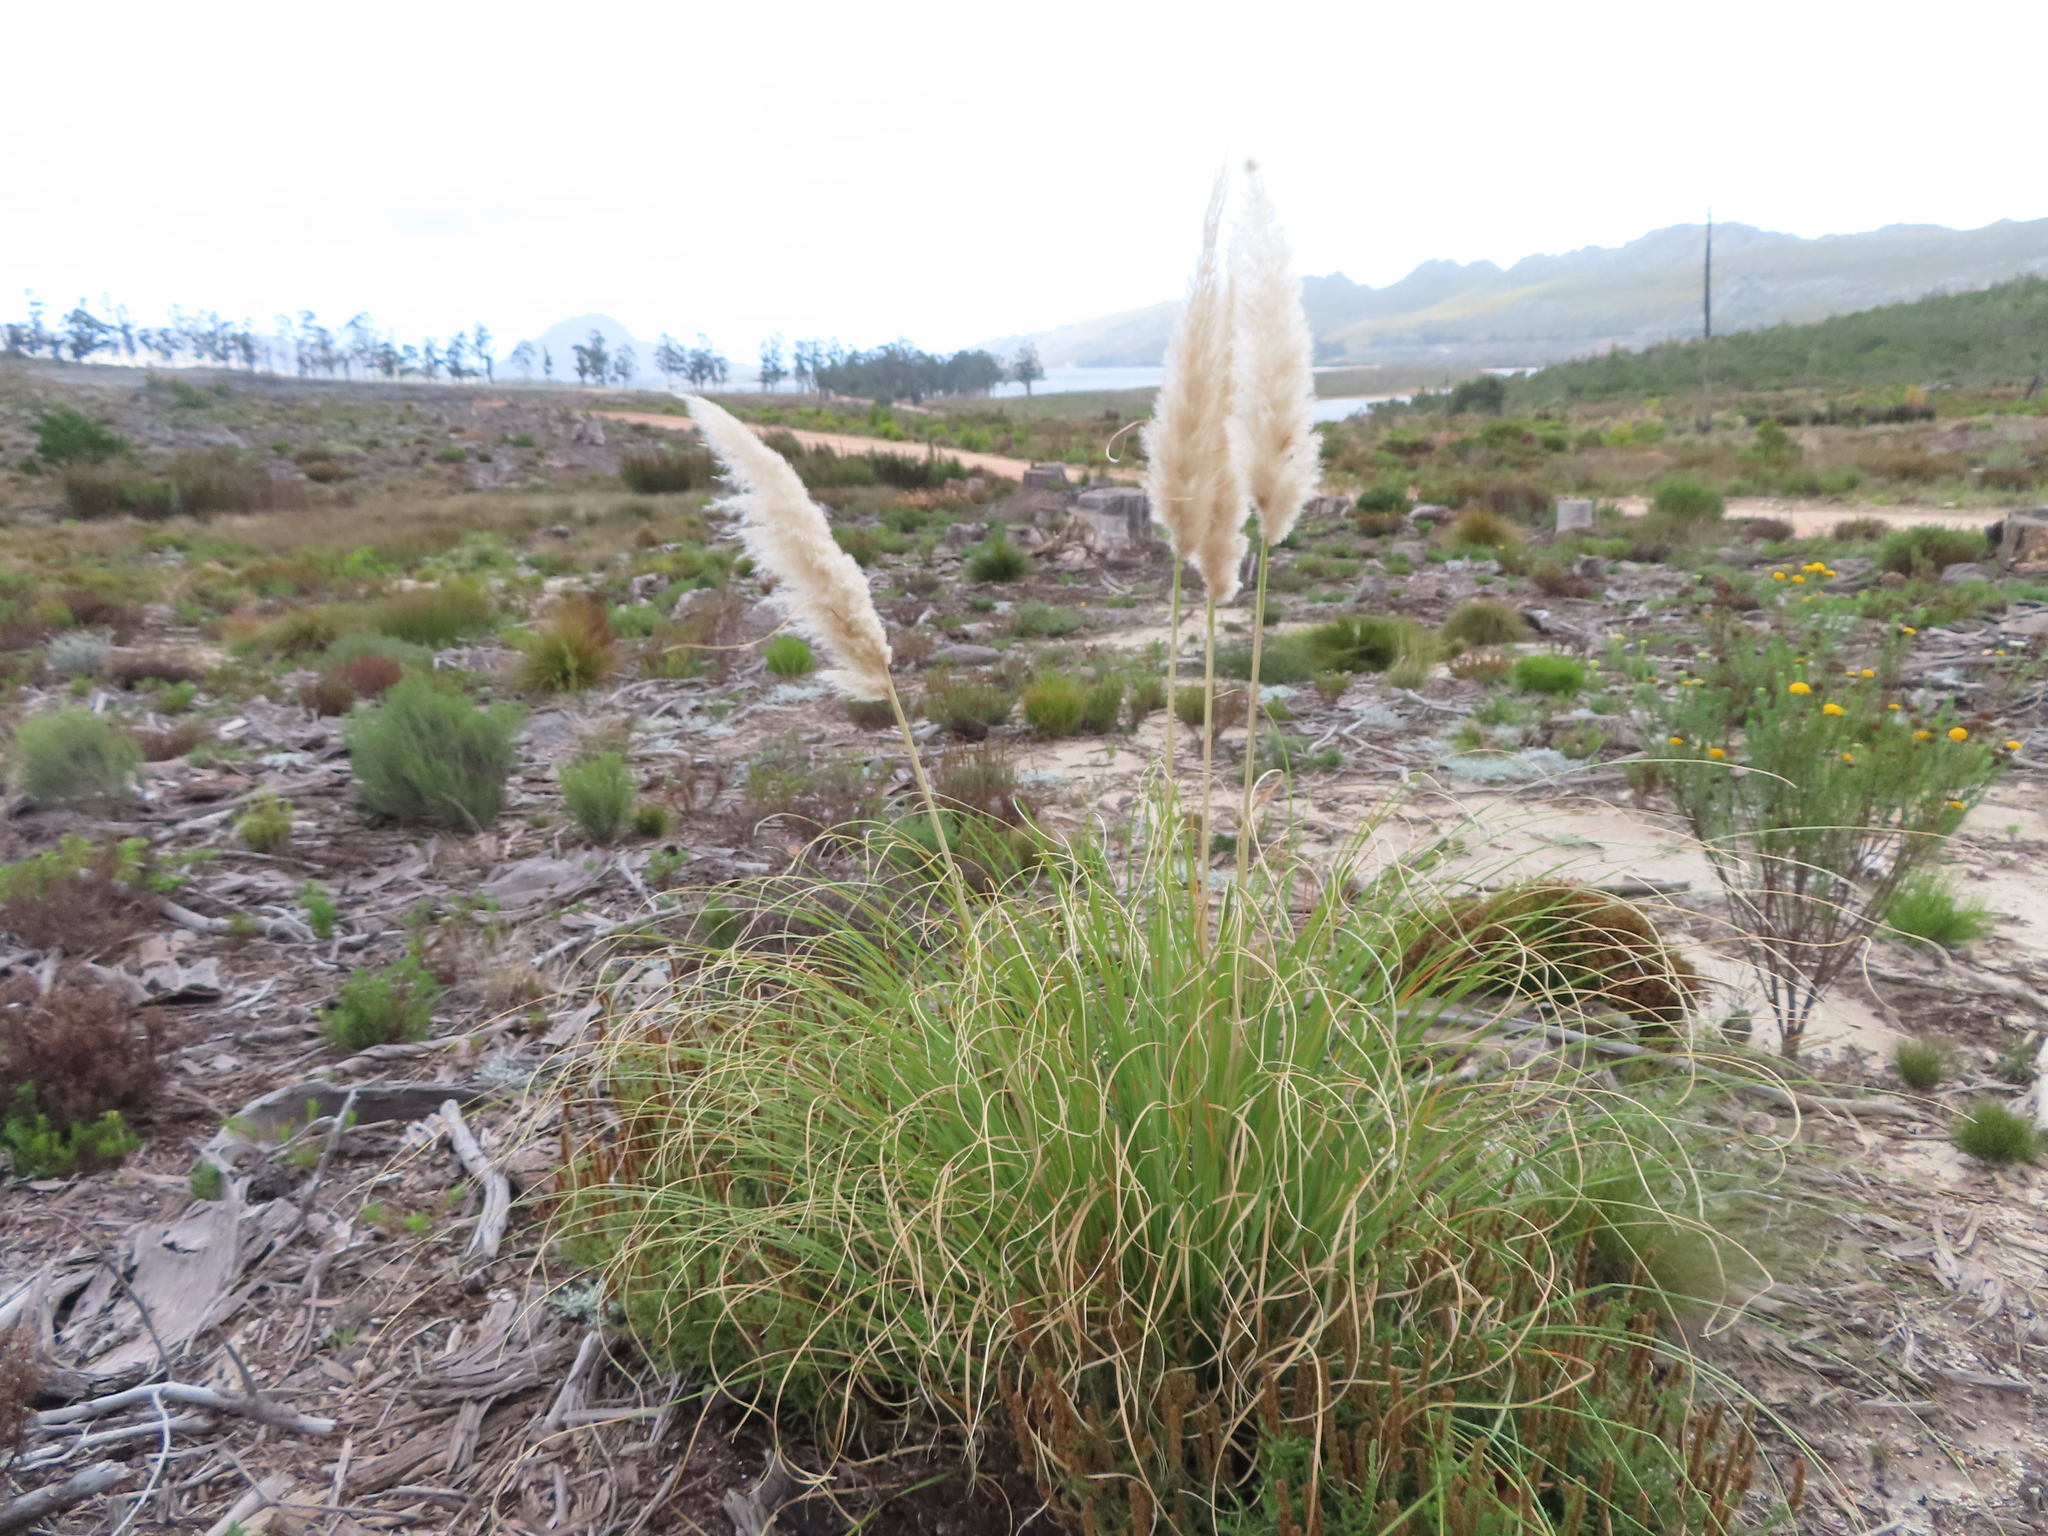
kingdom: Plantae
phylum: Tracheophyta
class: Liliopsida
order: Poales
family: Poaceae
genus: Cortaderia
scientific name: Cortaderia selloana
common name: Uruguayan pampas grass
